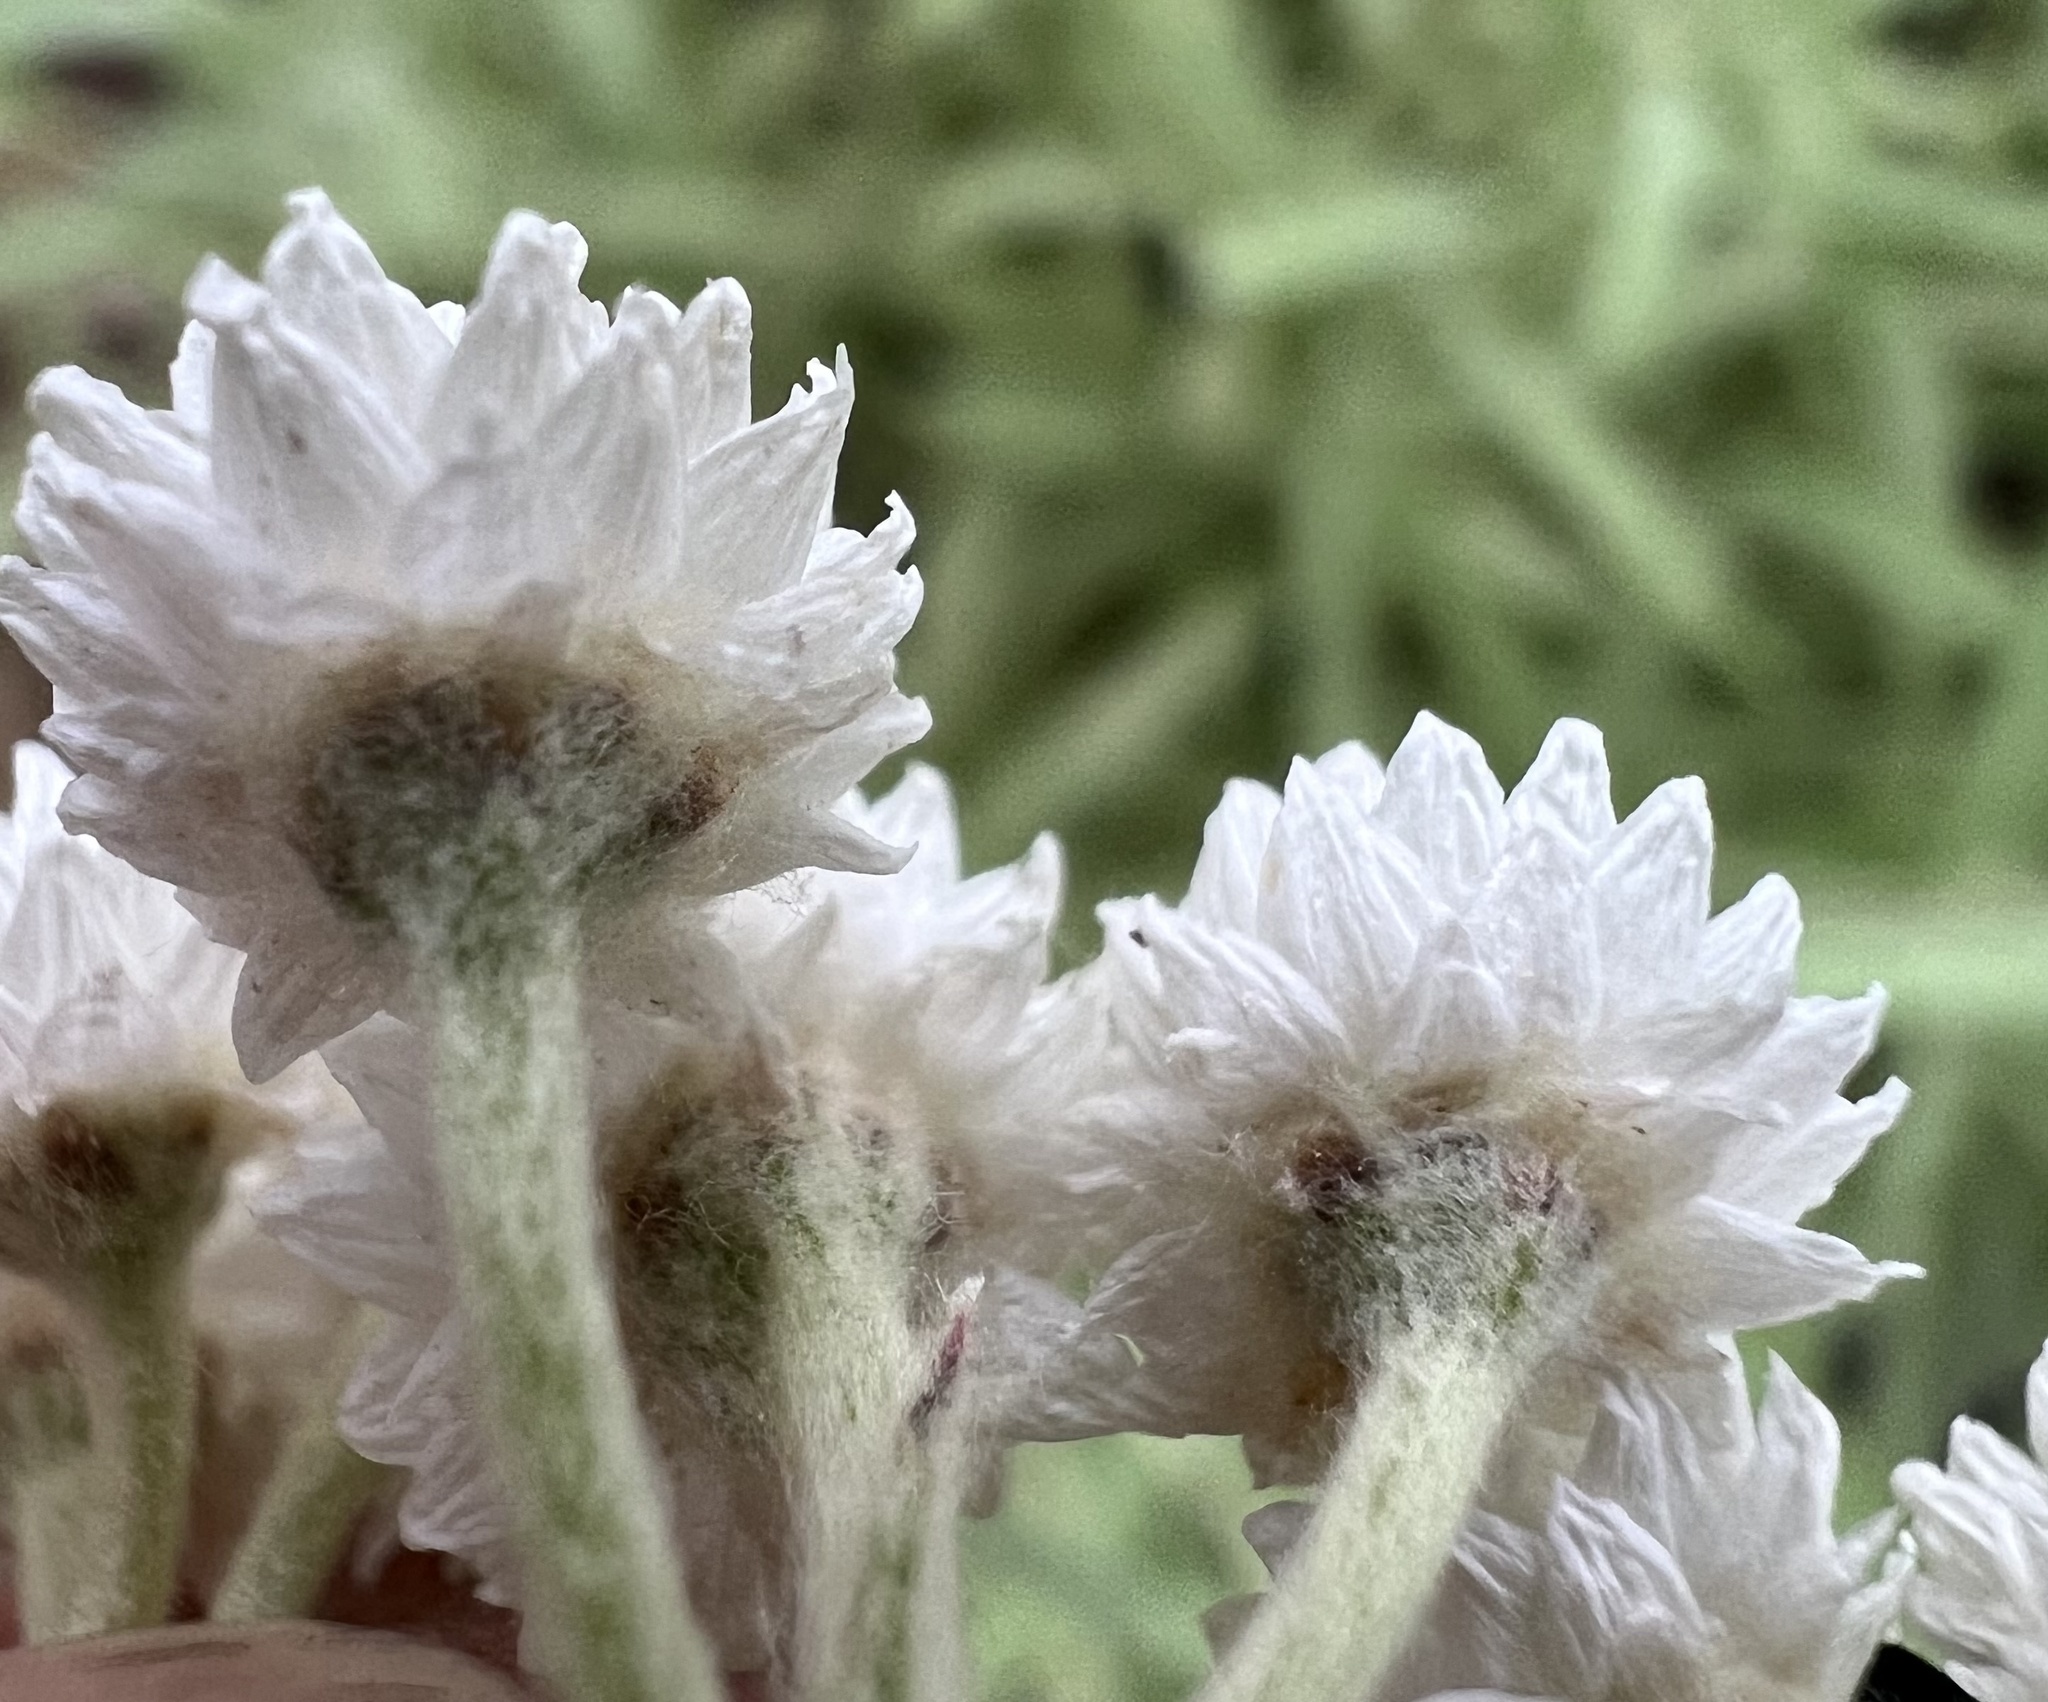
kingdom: Plantae
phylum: Tracheophyta
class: Magnoliopsida
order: Asterales
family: Asteraceae
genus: Anaphalis
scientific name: Anaphalis margaritacea
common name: Pearly everlasting
